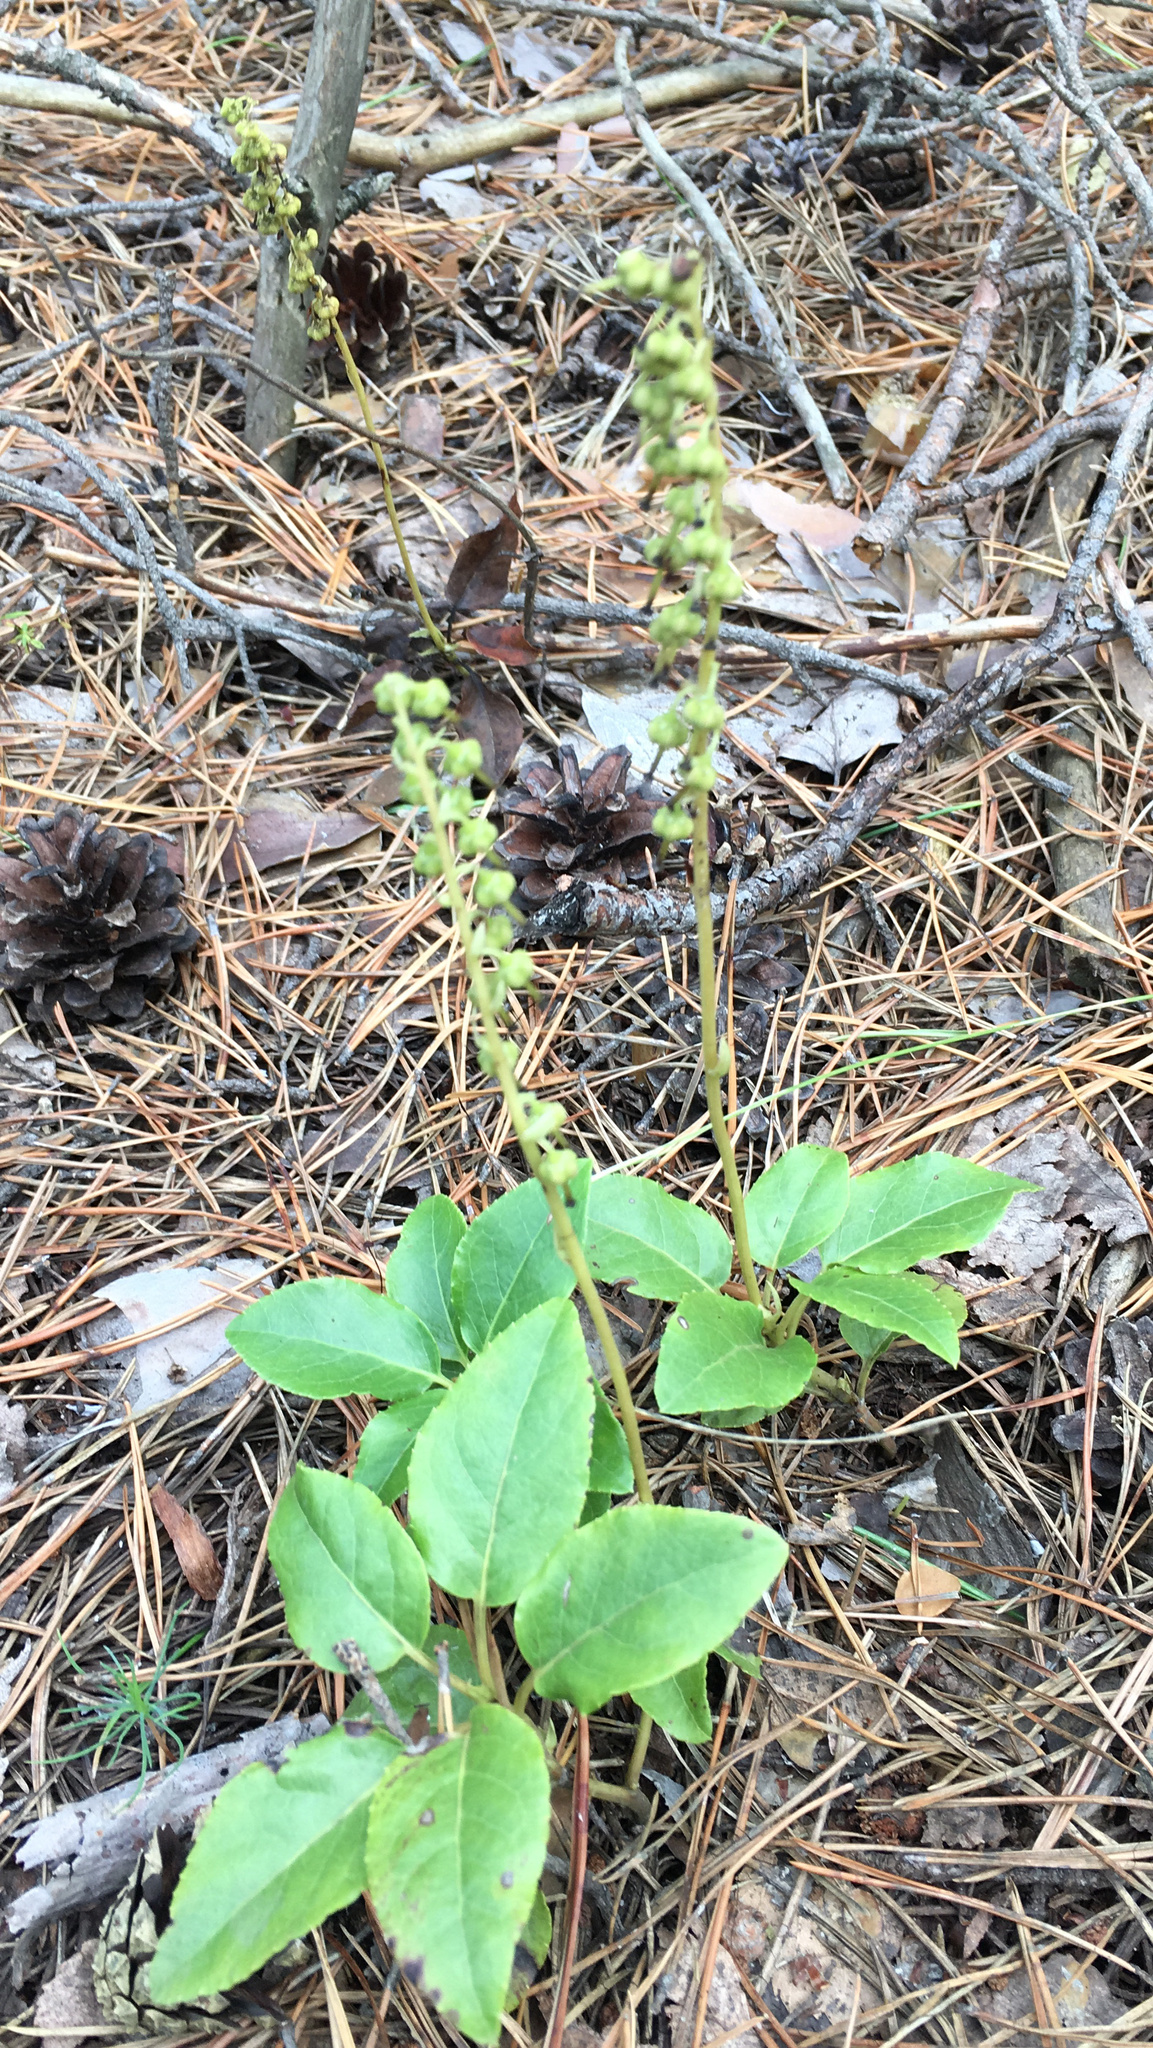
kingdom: Plantae
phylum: Tracheophyta
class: Magnoliopsida
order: Ericales
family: Ericaceae
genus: Orthilia
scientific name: Orthilia secunda
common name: One-sided orthilia
